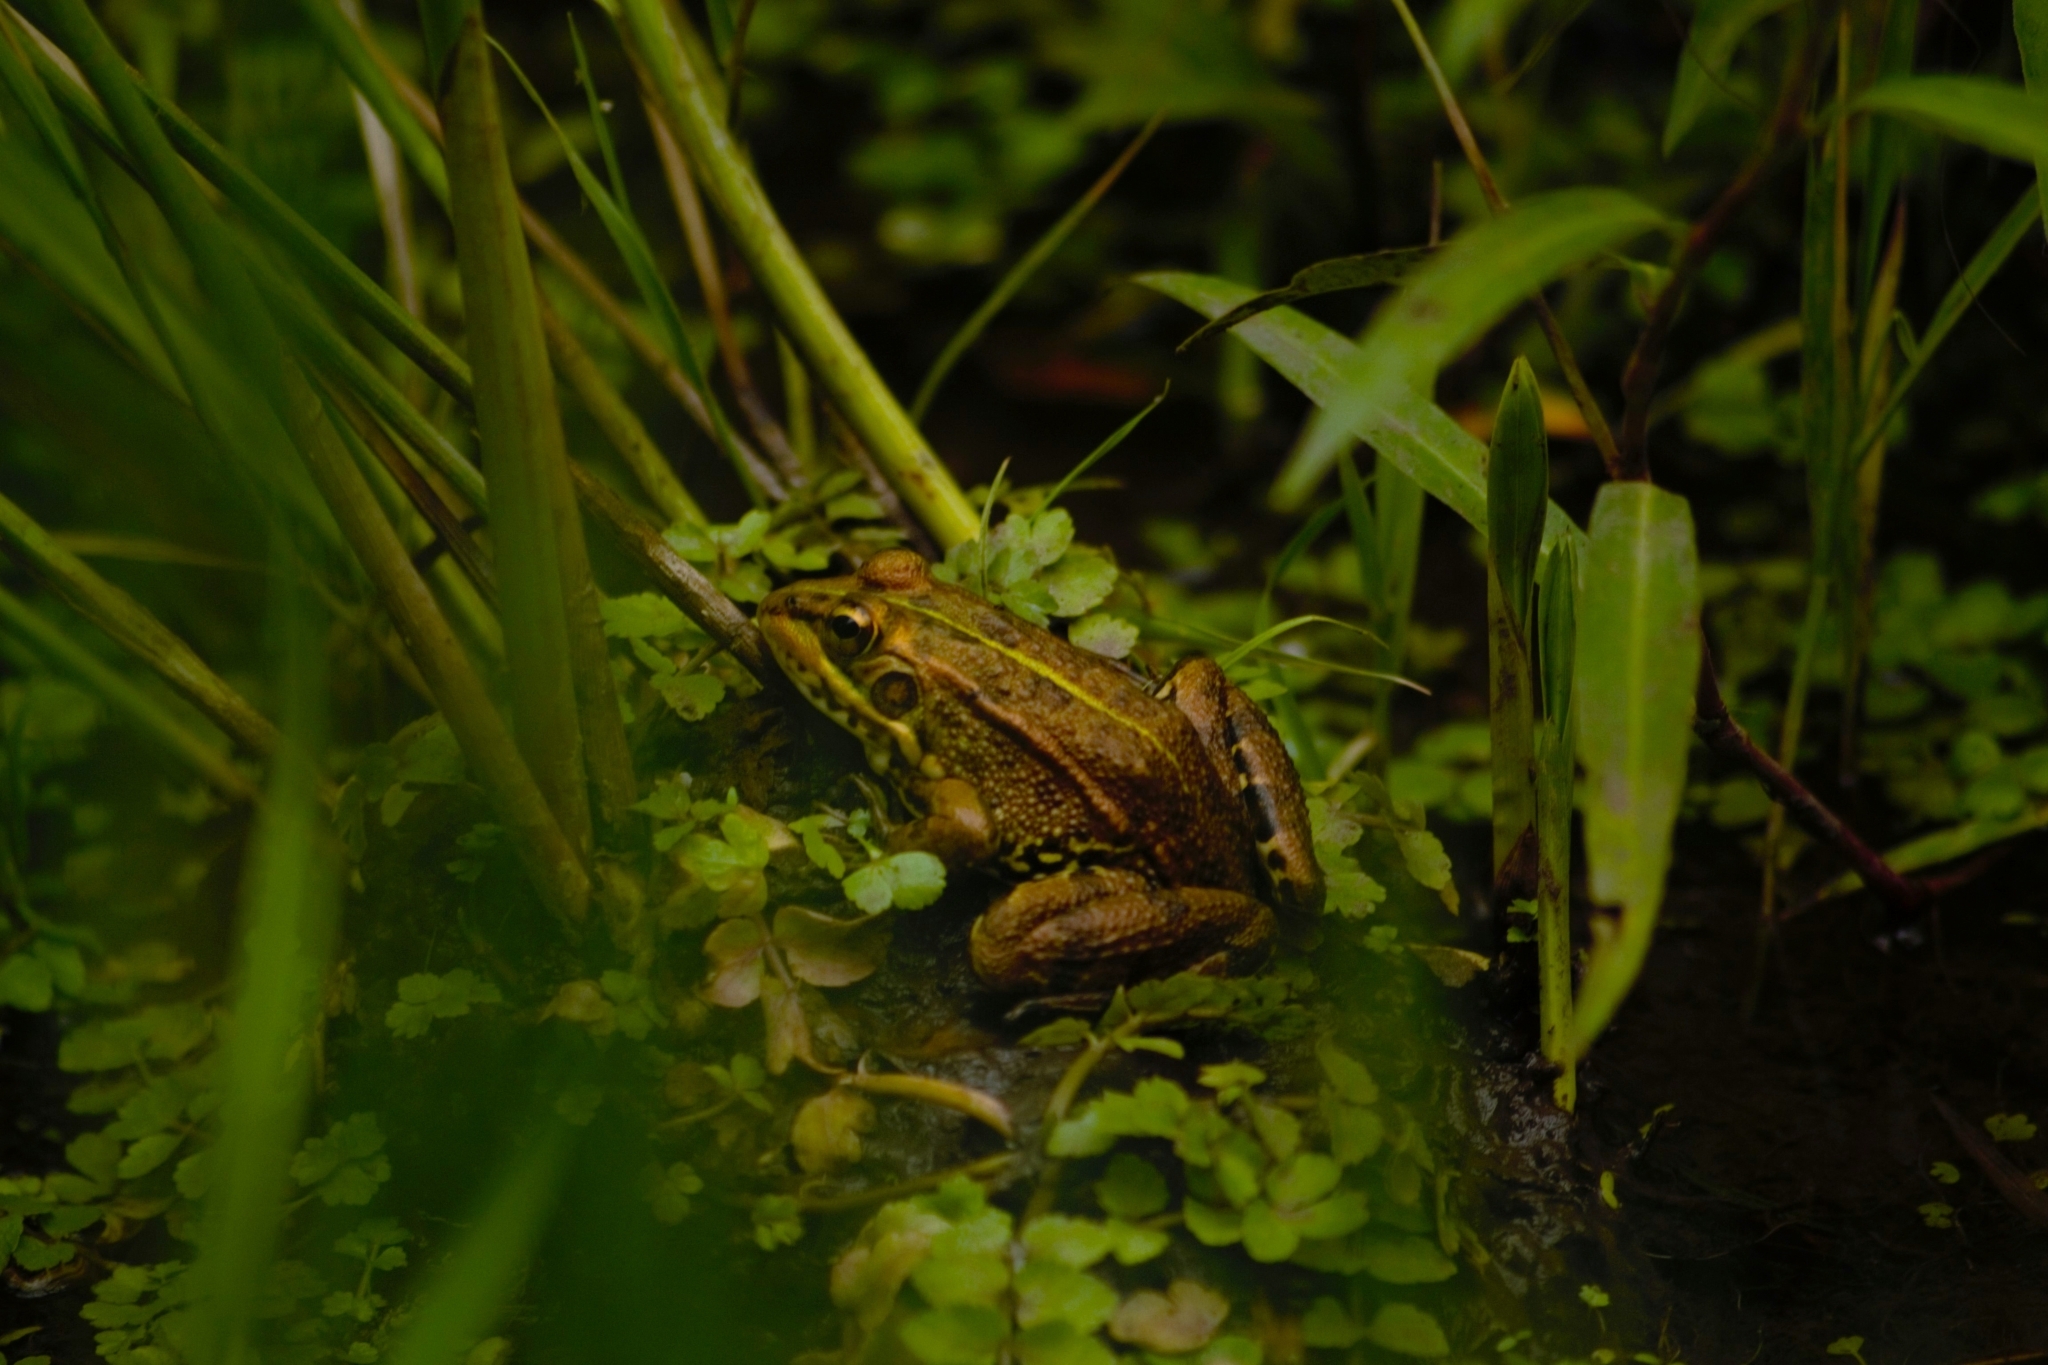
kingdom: Animalia
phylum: Chordata
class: Amphibia
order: Anura
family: Ranidae
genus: Pelophylax
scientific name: Pelophylax perezi
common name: Perez's frog
